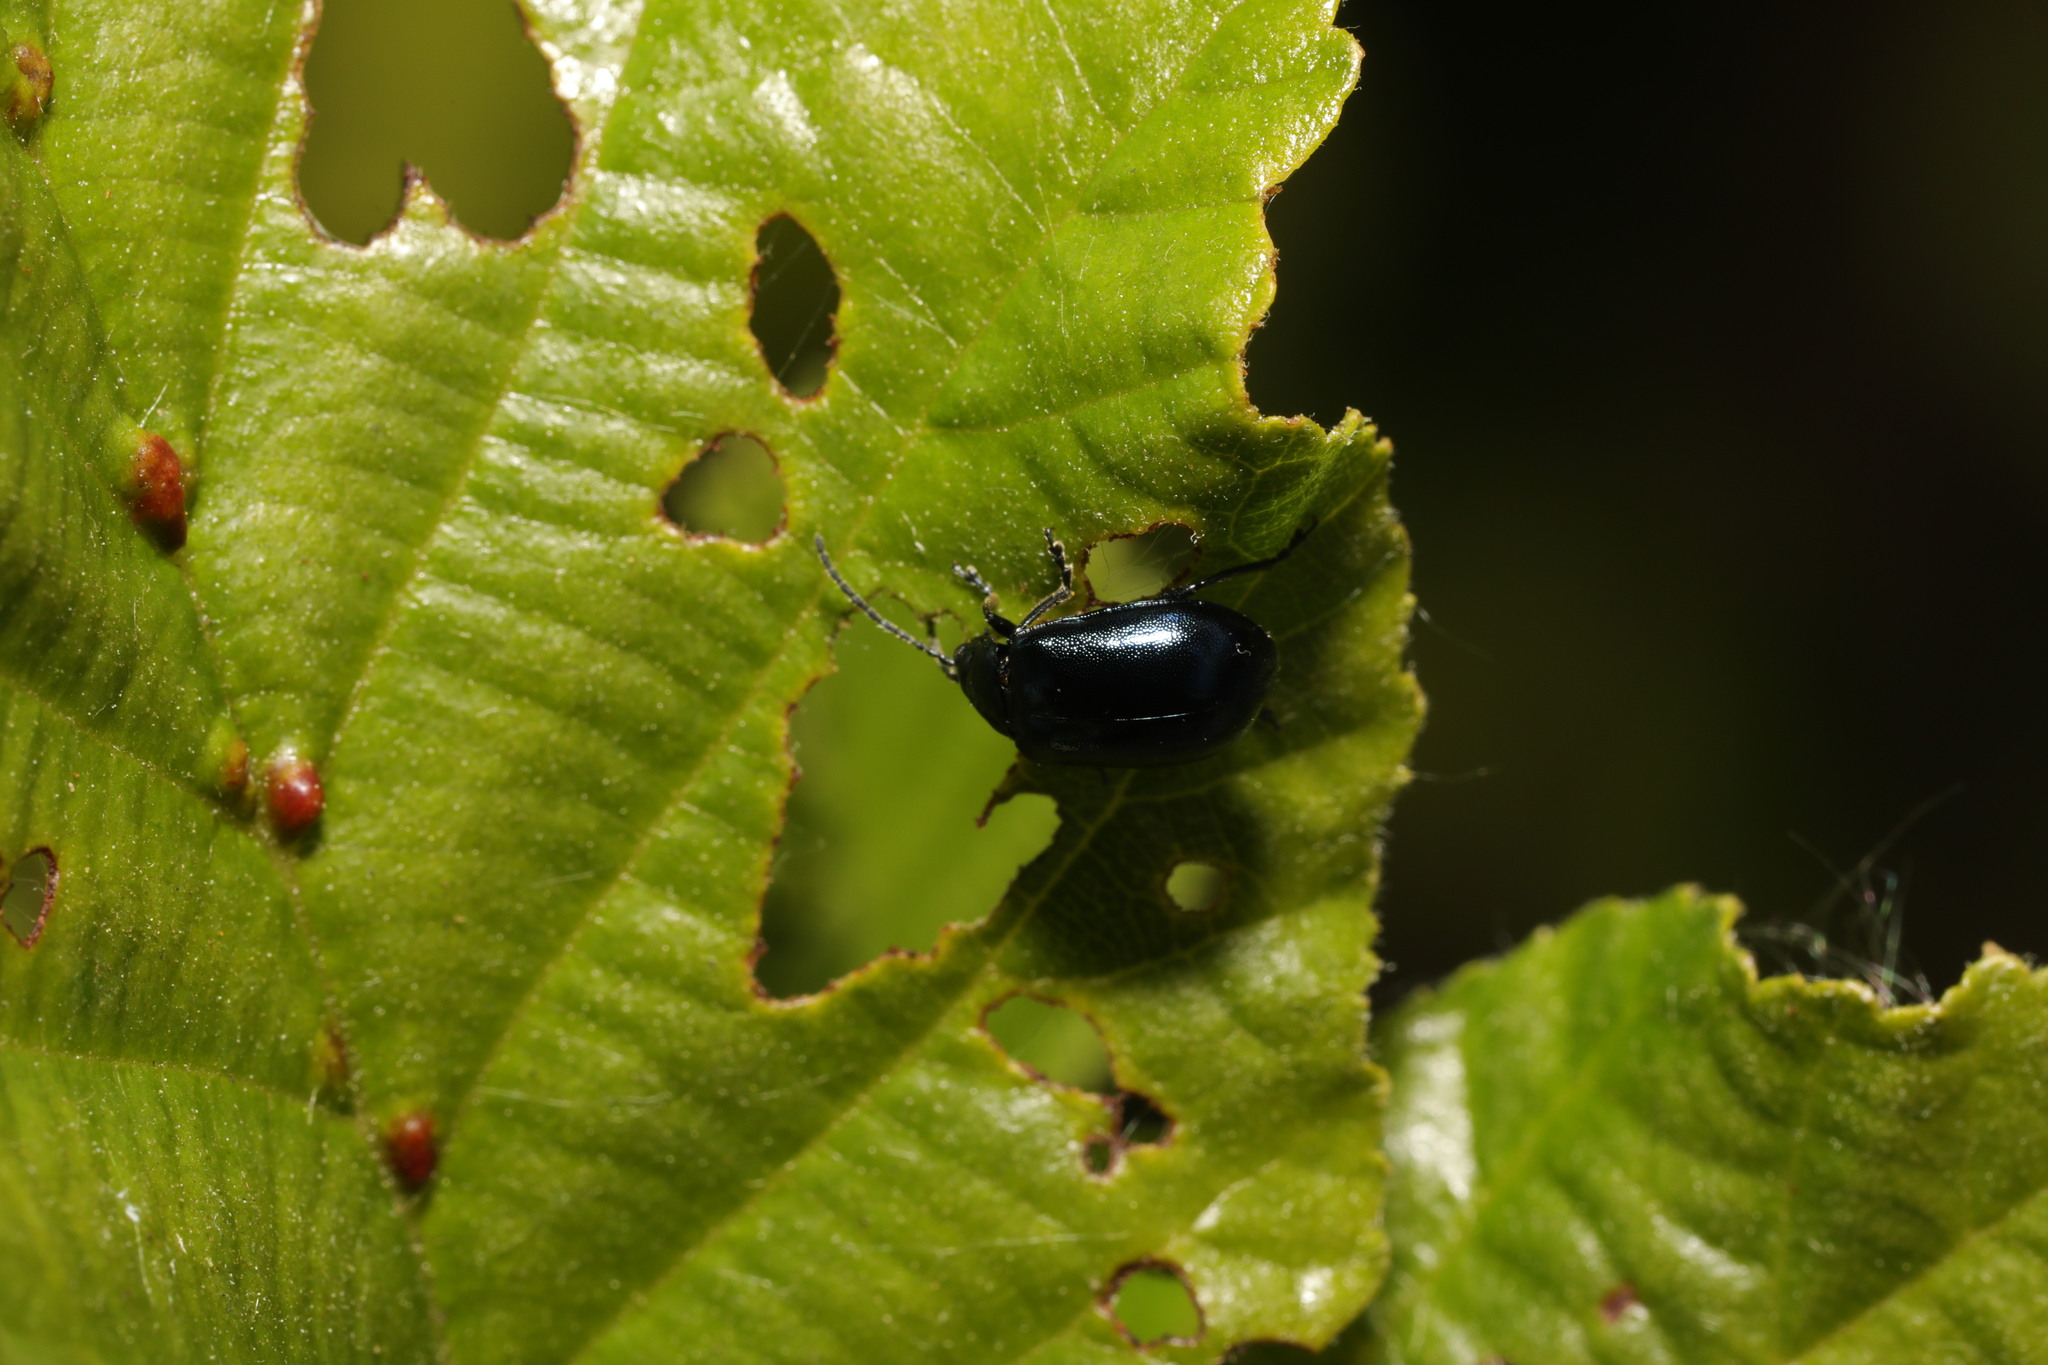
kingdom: Animalia
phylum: Arthropoda
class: Insecta
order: Coleoptera
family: Chrysomelidae
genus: Agelastica
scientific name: Agelastica alni
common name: Alder leaf beetle
